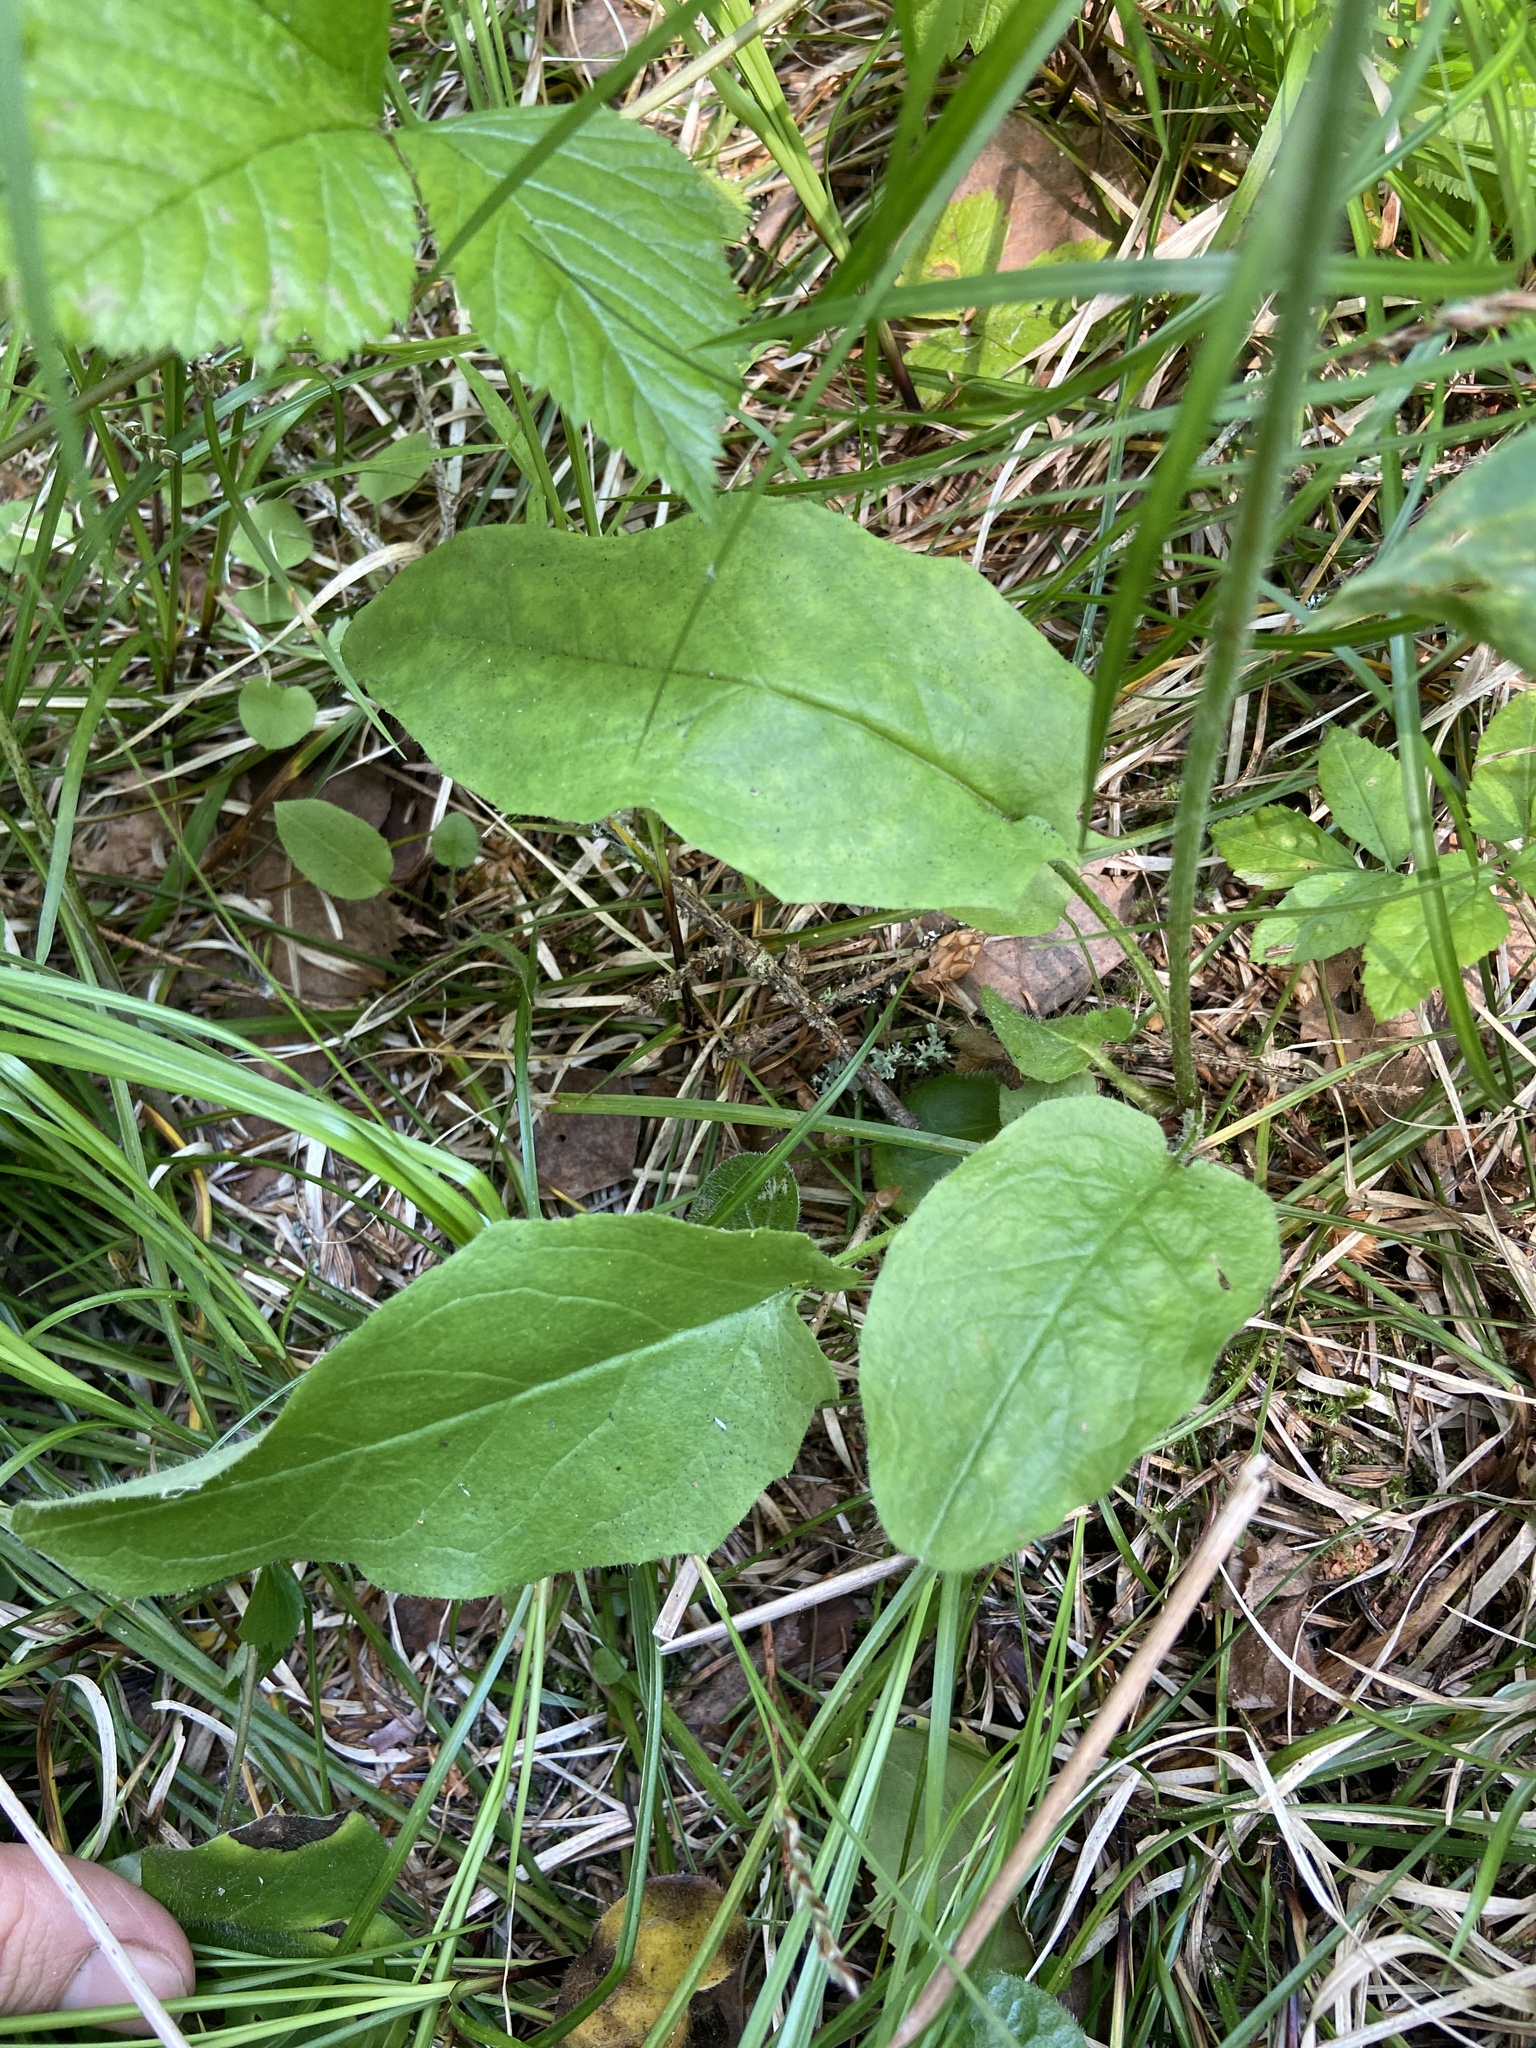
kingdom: Plantae
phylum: Tracheophyta
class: Magnoliopsida
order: Asterales
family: Asteraceae
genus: Hieracium
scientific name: Hieracium murorum
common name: Wall hawkweed
